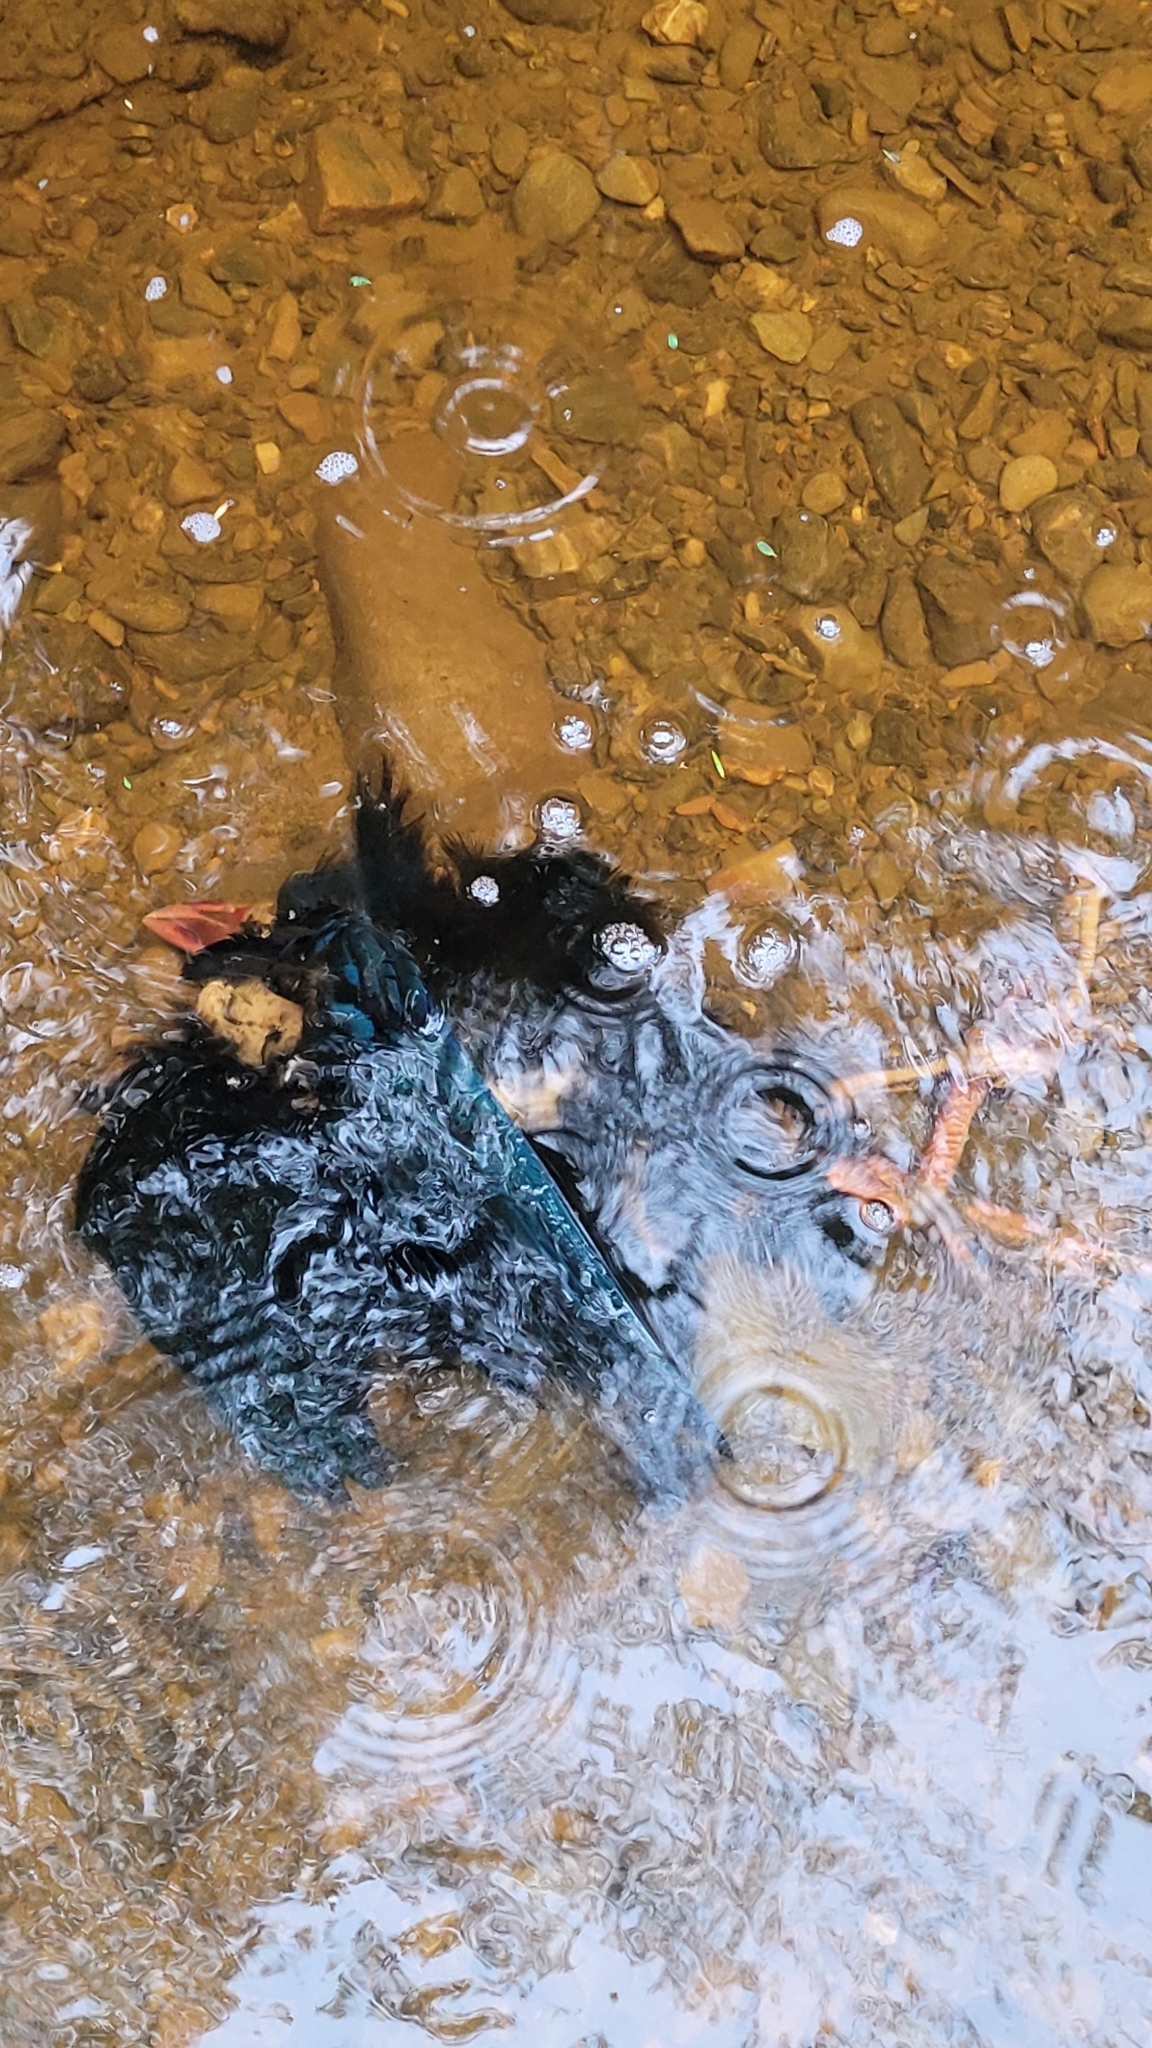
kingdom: Animalia
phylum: Chordata
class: Aves
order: Gruiformes
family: Rallidae
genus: Porphyrio
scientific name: Porphyrio melanotus
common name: Australasian swamphen
